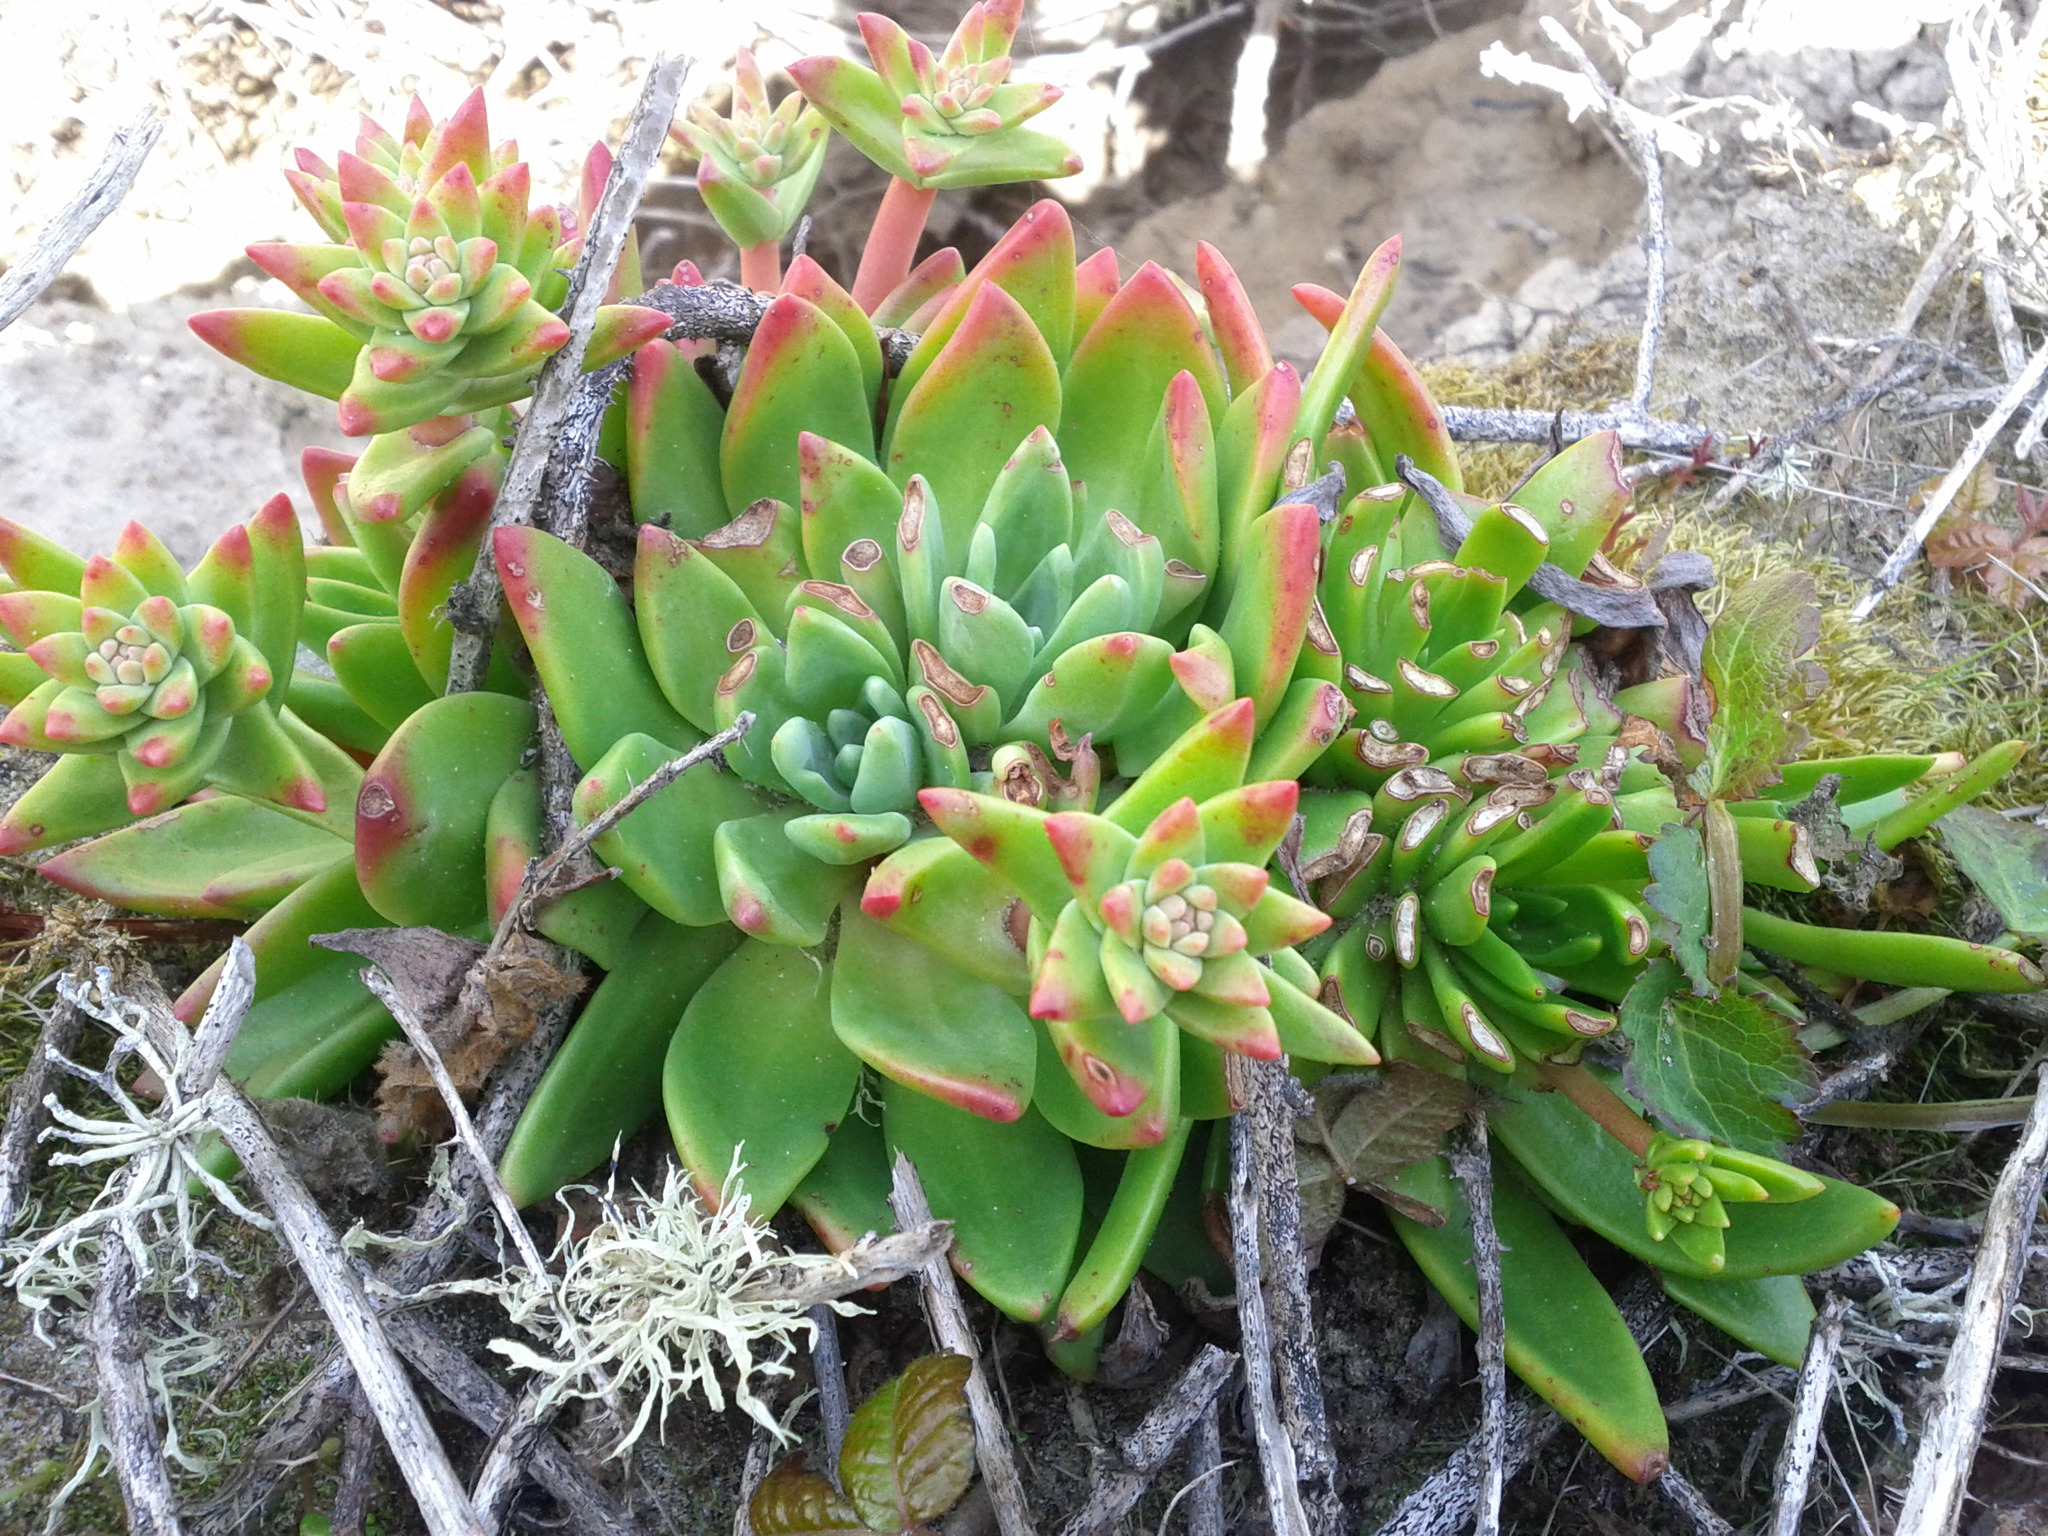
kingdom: Plantae
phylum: Tracheophyta
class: Magnoliopsida
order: Saxifragales
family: Crassulaceae
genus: Dudleya
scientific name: Dudleya caespitosa
